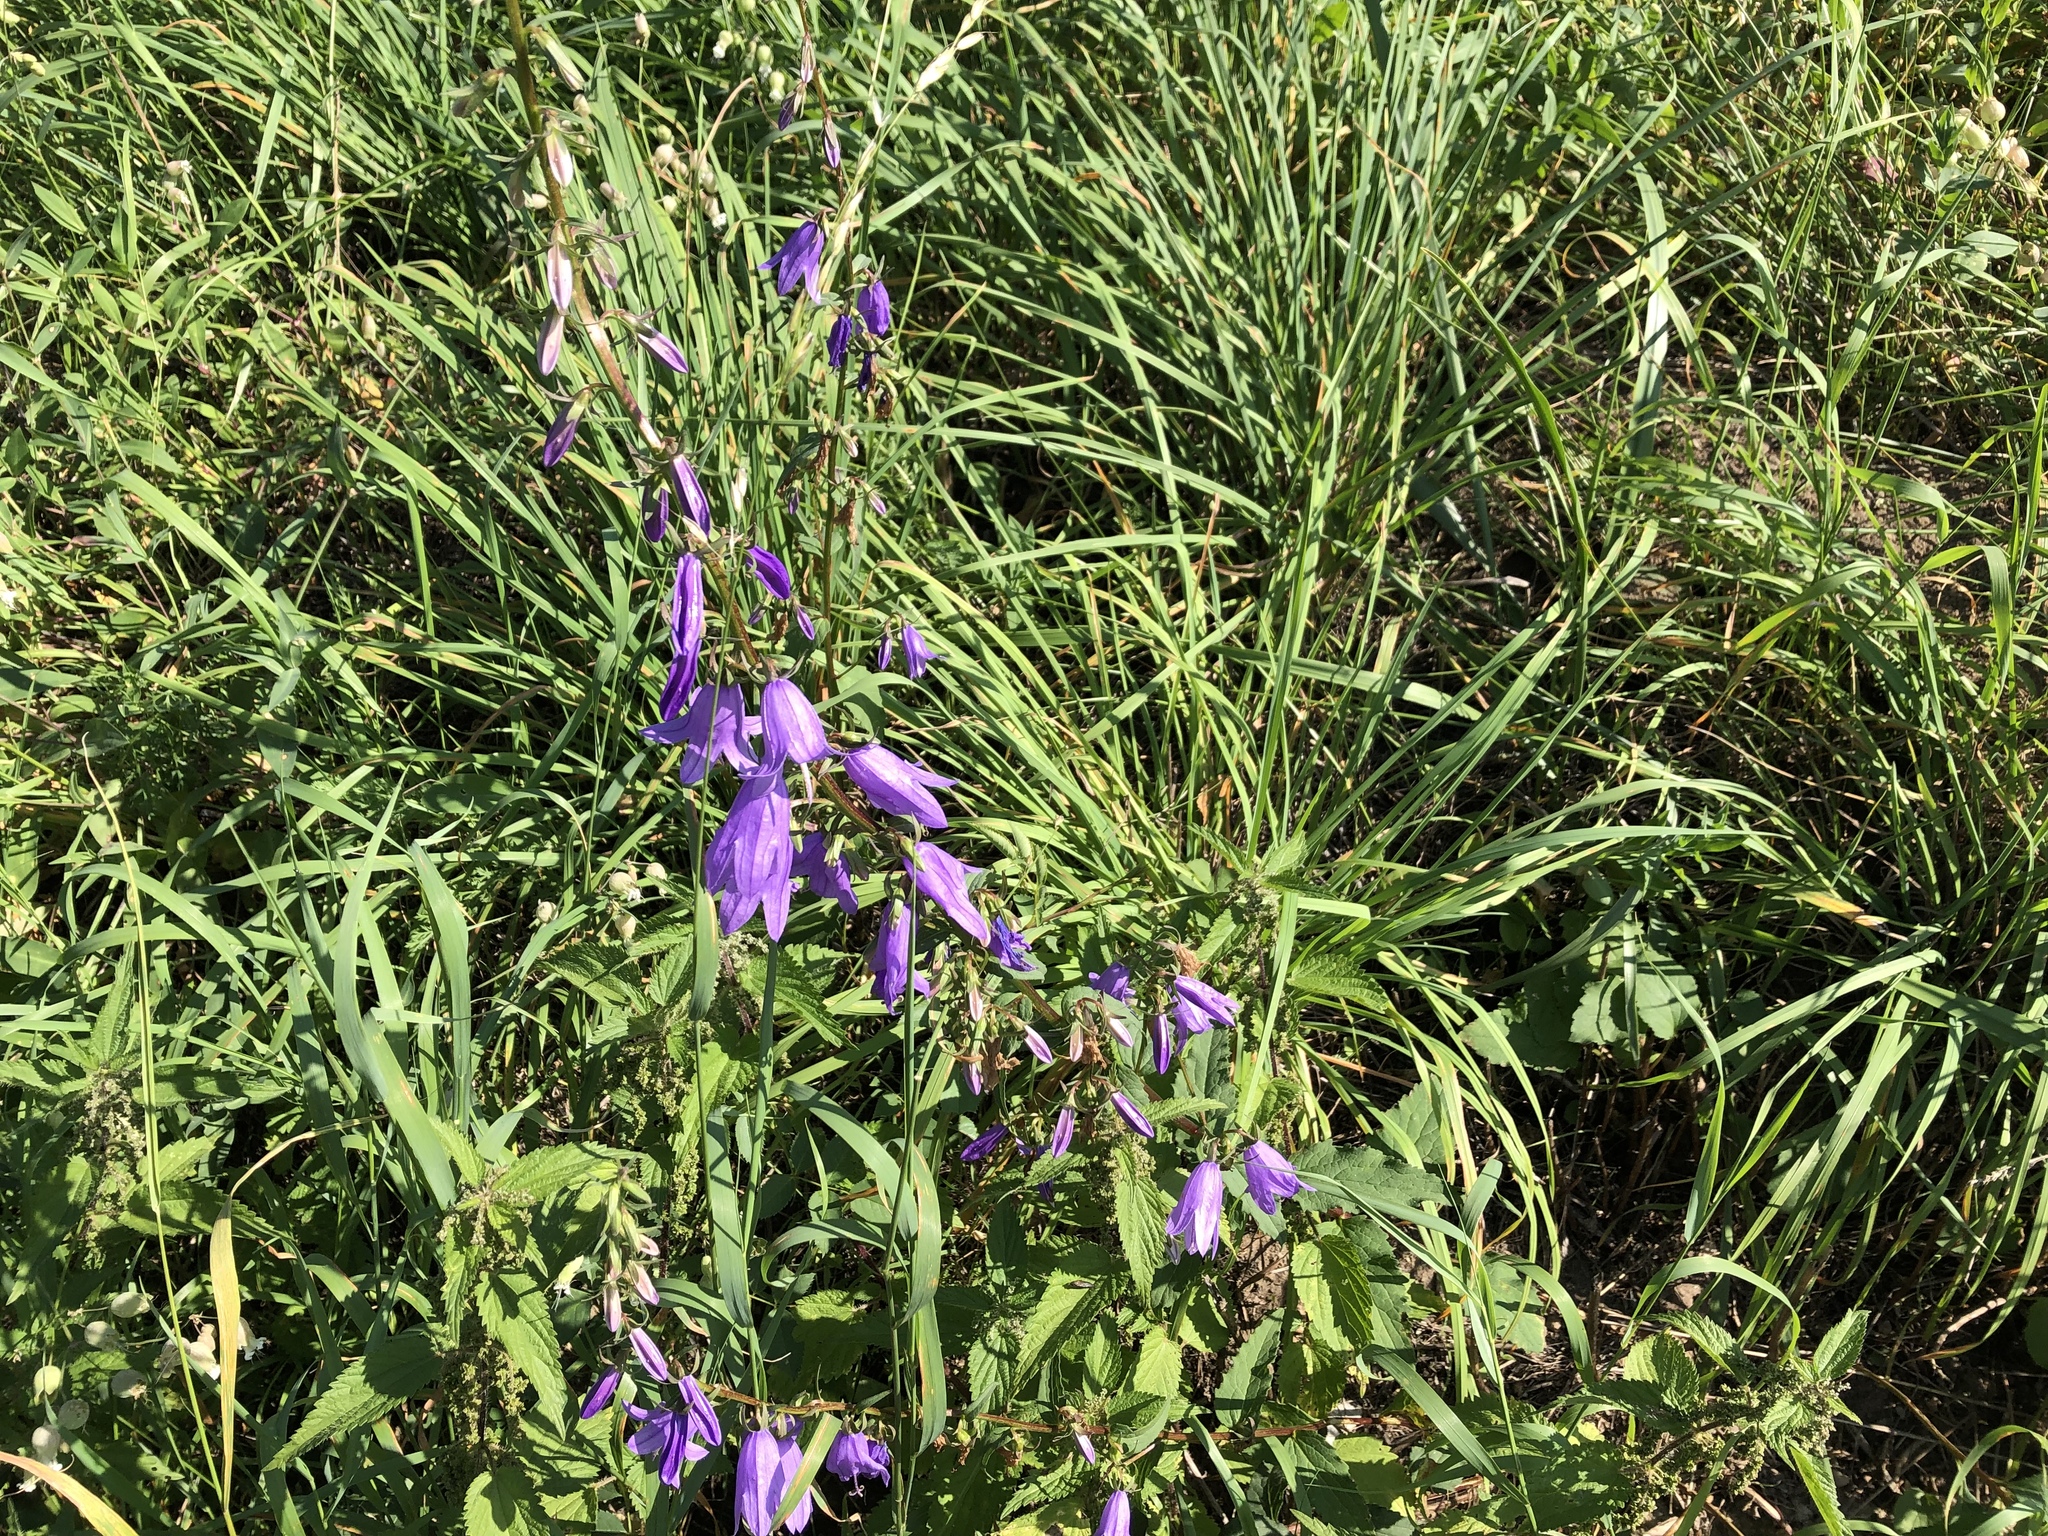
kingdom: Plantae
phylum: Tracheophyta
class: Magnoliopsida
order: Asterales
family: Campanulaceae
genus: Campanula
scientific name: Campanula rapunculoides
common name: Creeping bellflower
